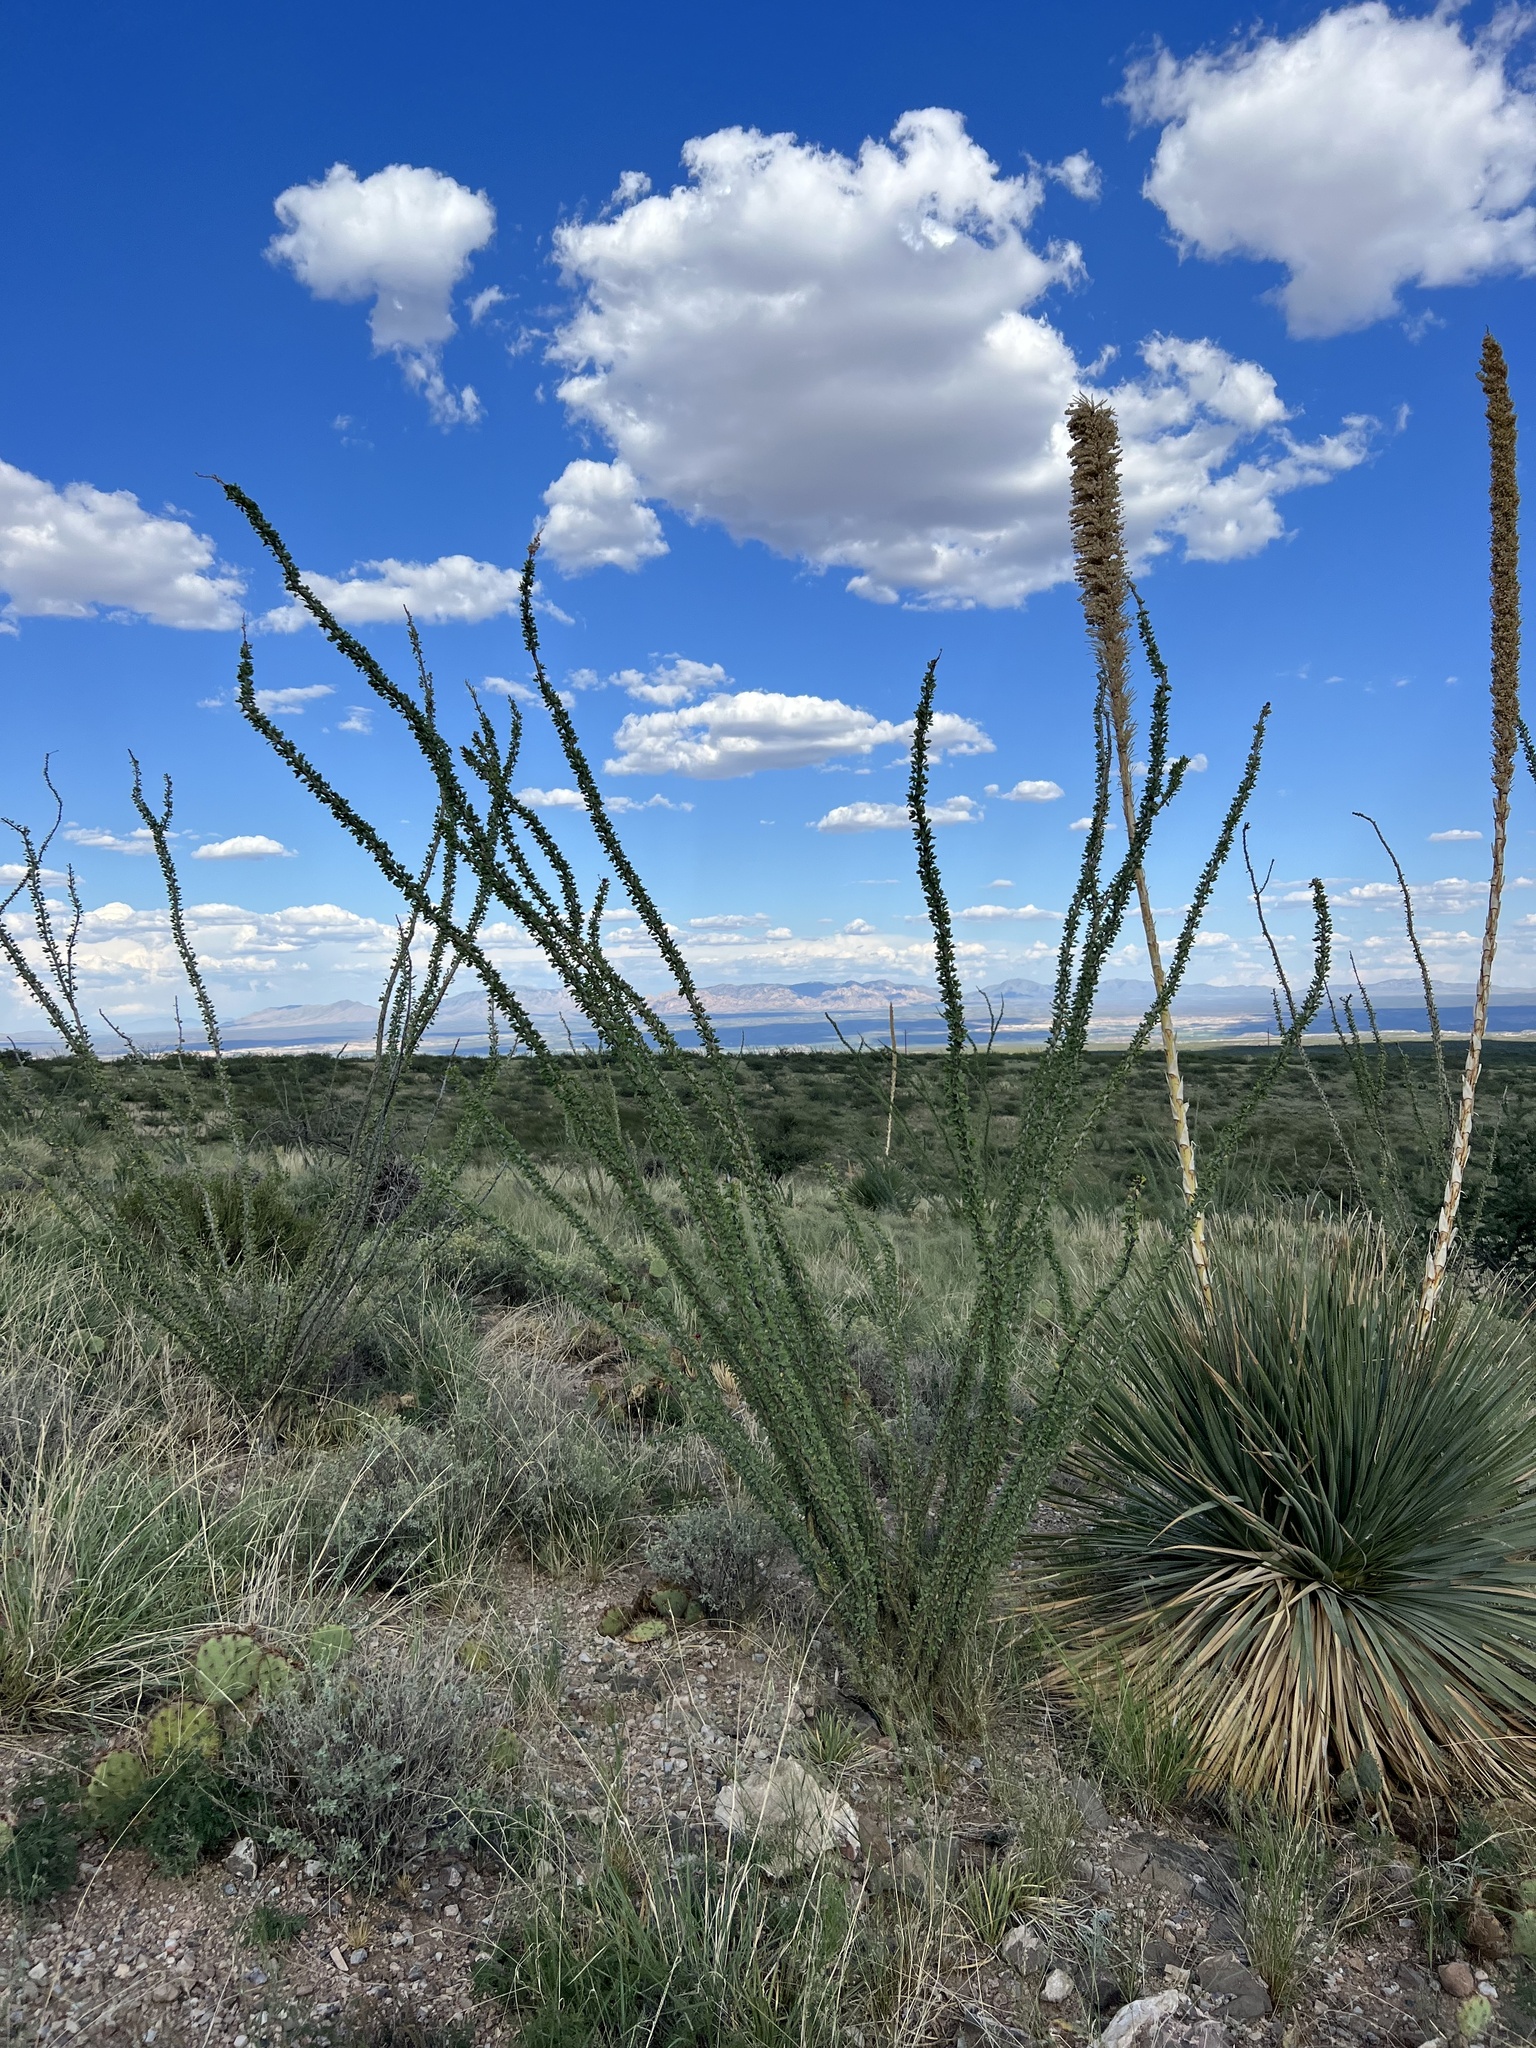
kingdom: Plantae
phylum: Tracheophyta
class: Magnoliopsida
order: Ericales
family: Fouquieriaceae
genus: Fouquieria
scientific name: Fouquieria splendens
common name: Vine-cactus
